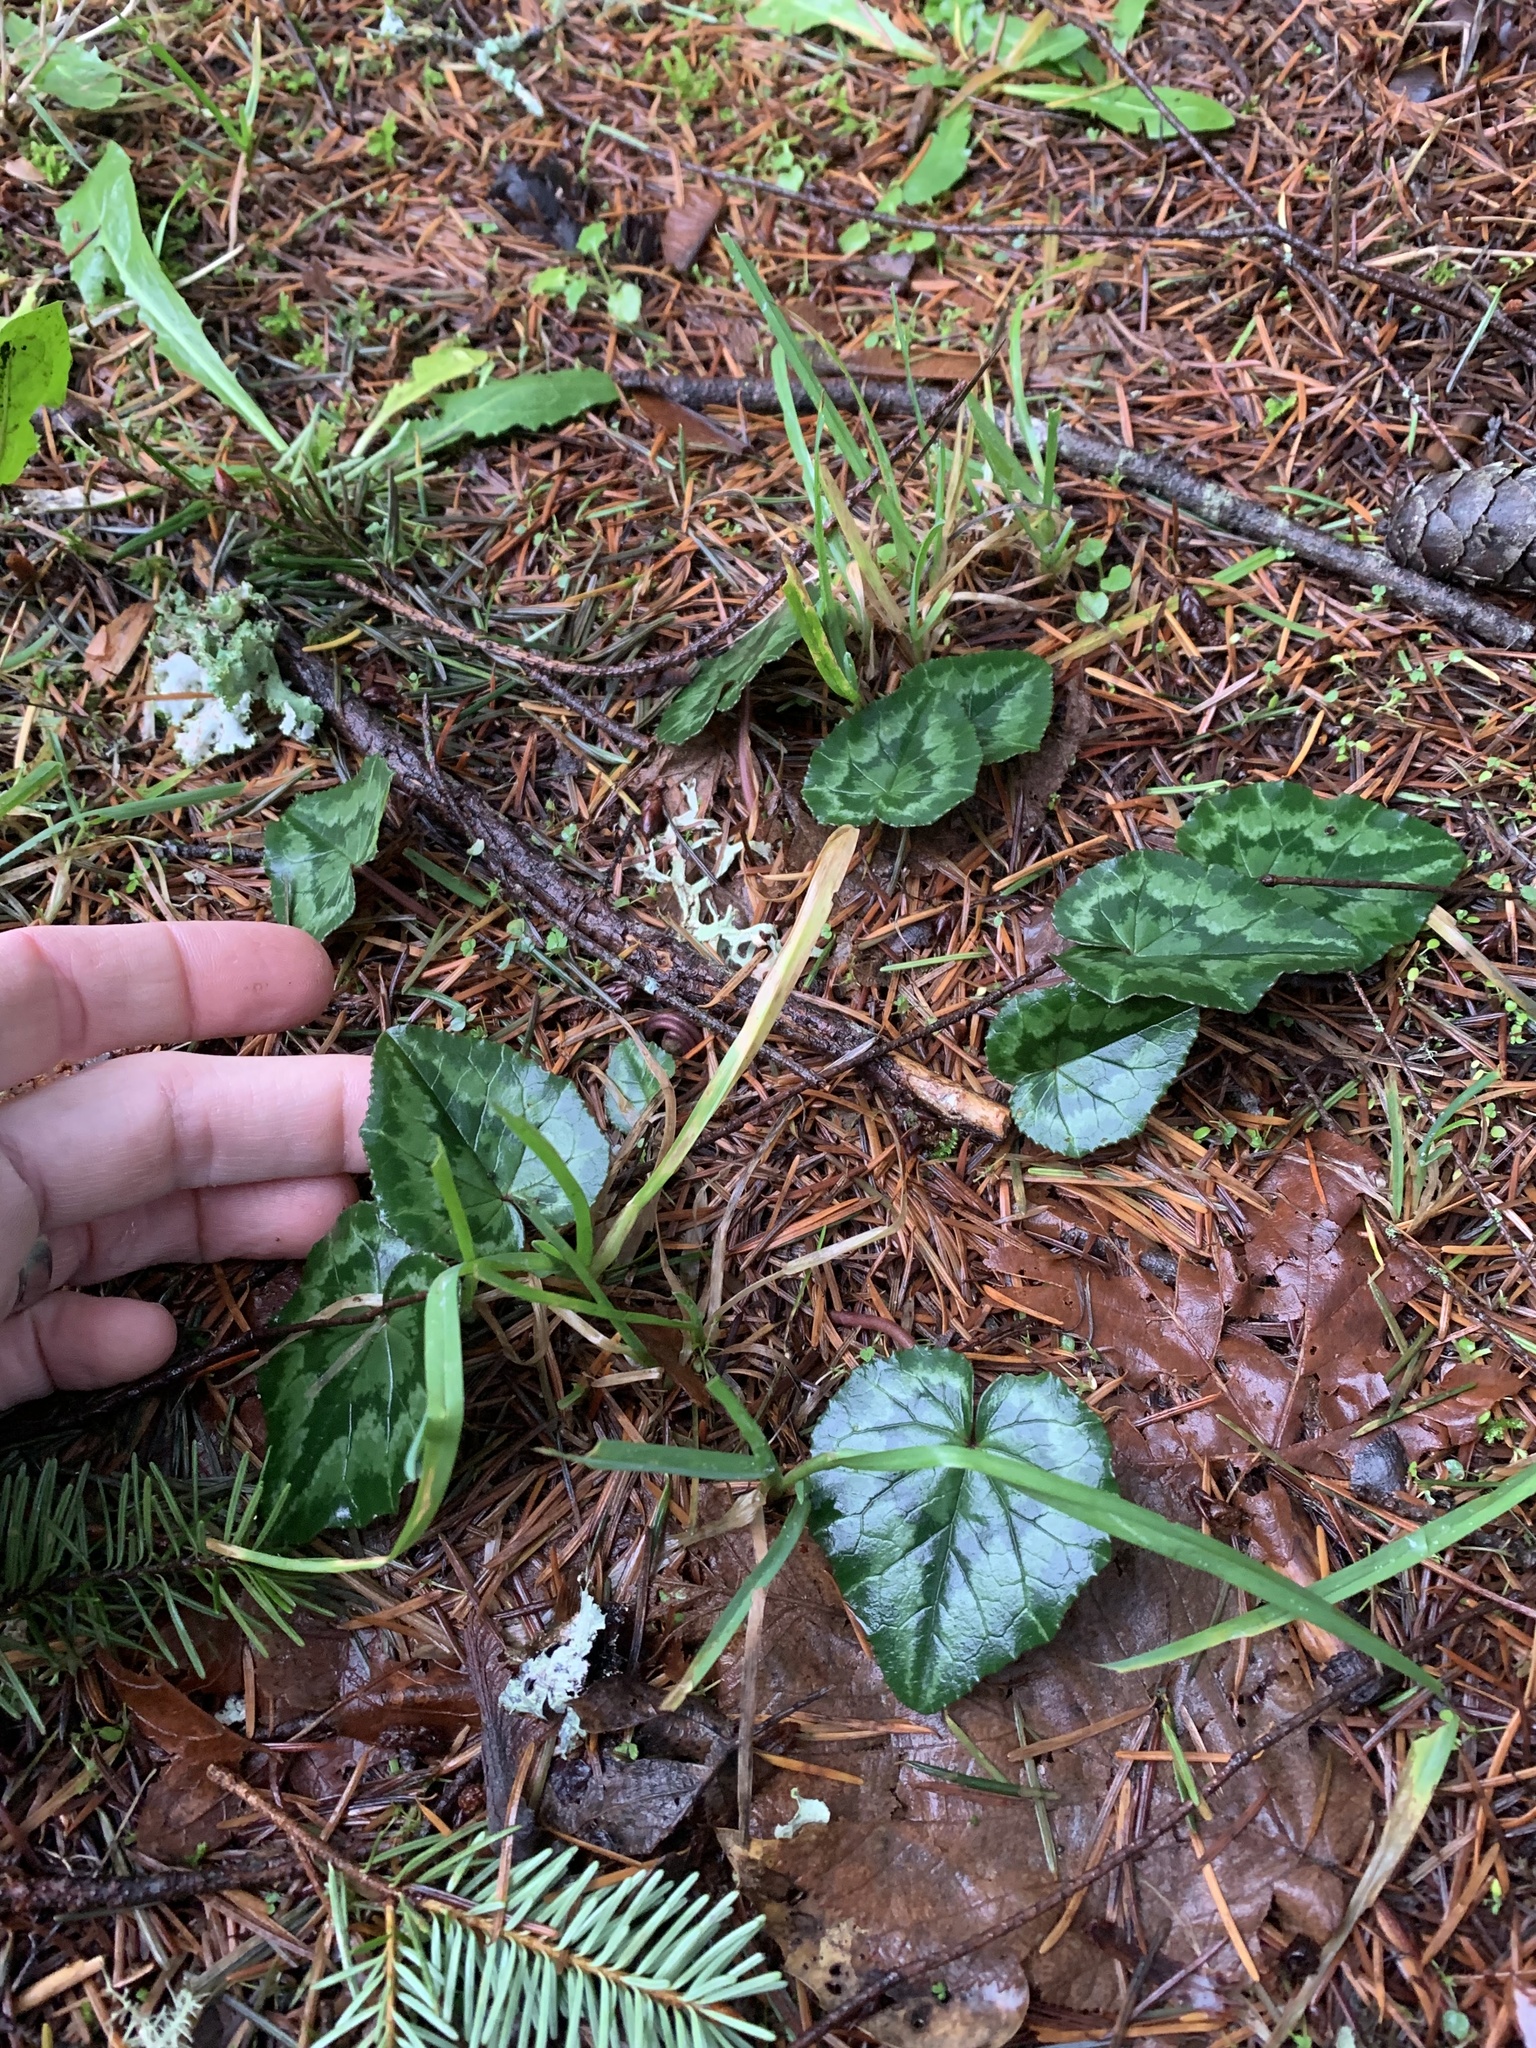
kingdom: Plantae
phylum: Tracheophyta
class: Magnoliopsida
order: Ericales
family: Primulaceae
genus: Cyclamen
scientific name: Cyclamen hederifolium
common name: Sowbread
